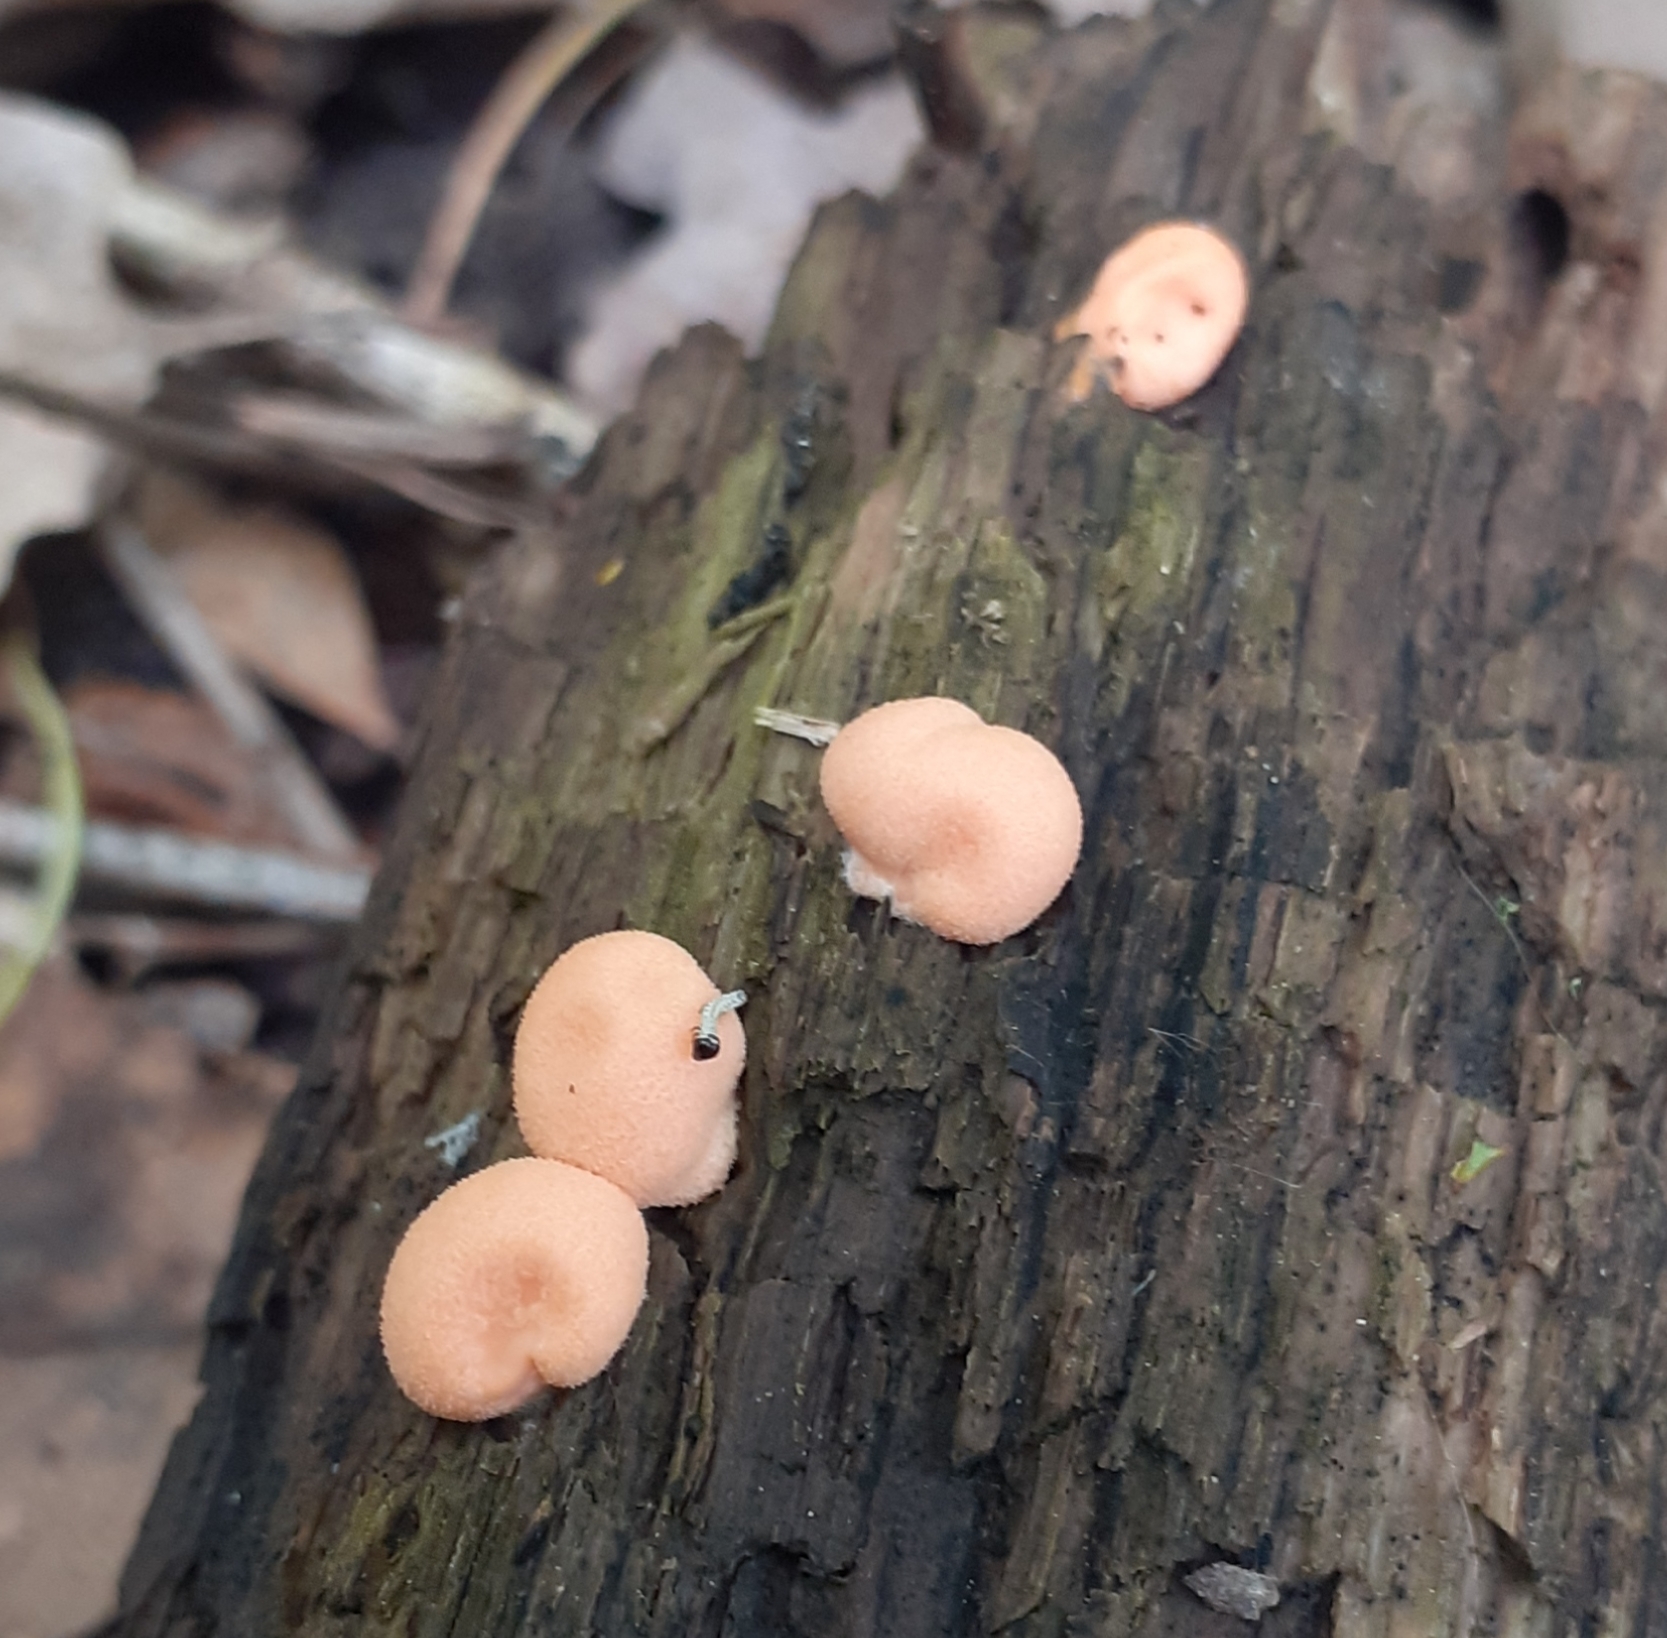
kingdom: Protozoa
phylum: Mycetozoa
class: Myxomycetes
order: Cribrariales
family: Tubiferaceae
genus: Lycogala
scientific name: Lycogala epidendrum
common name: Wolf's milk
